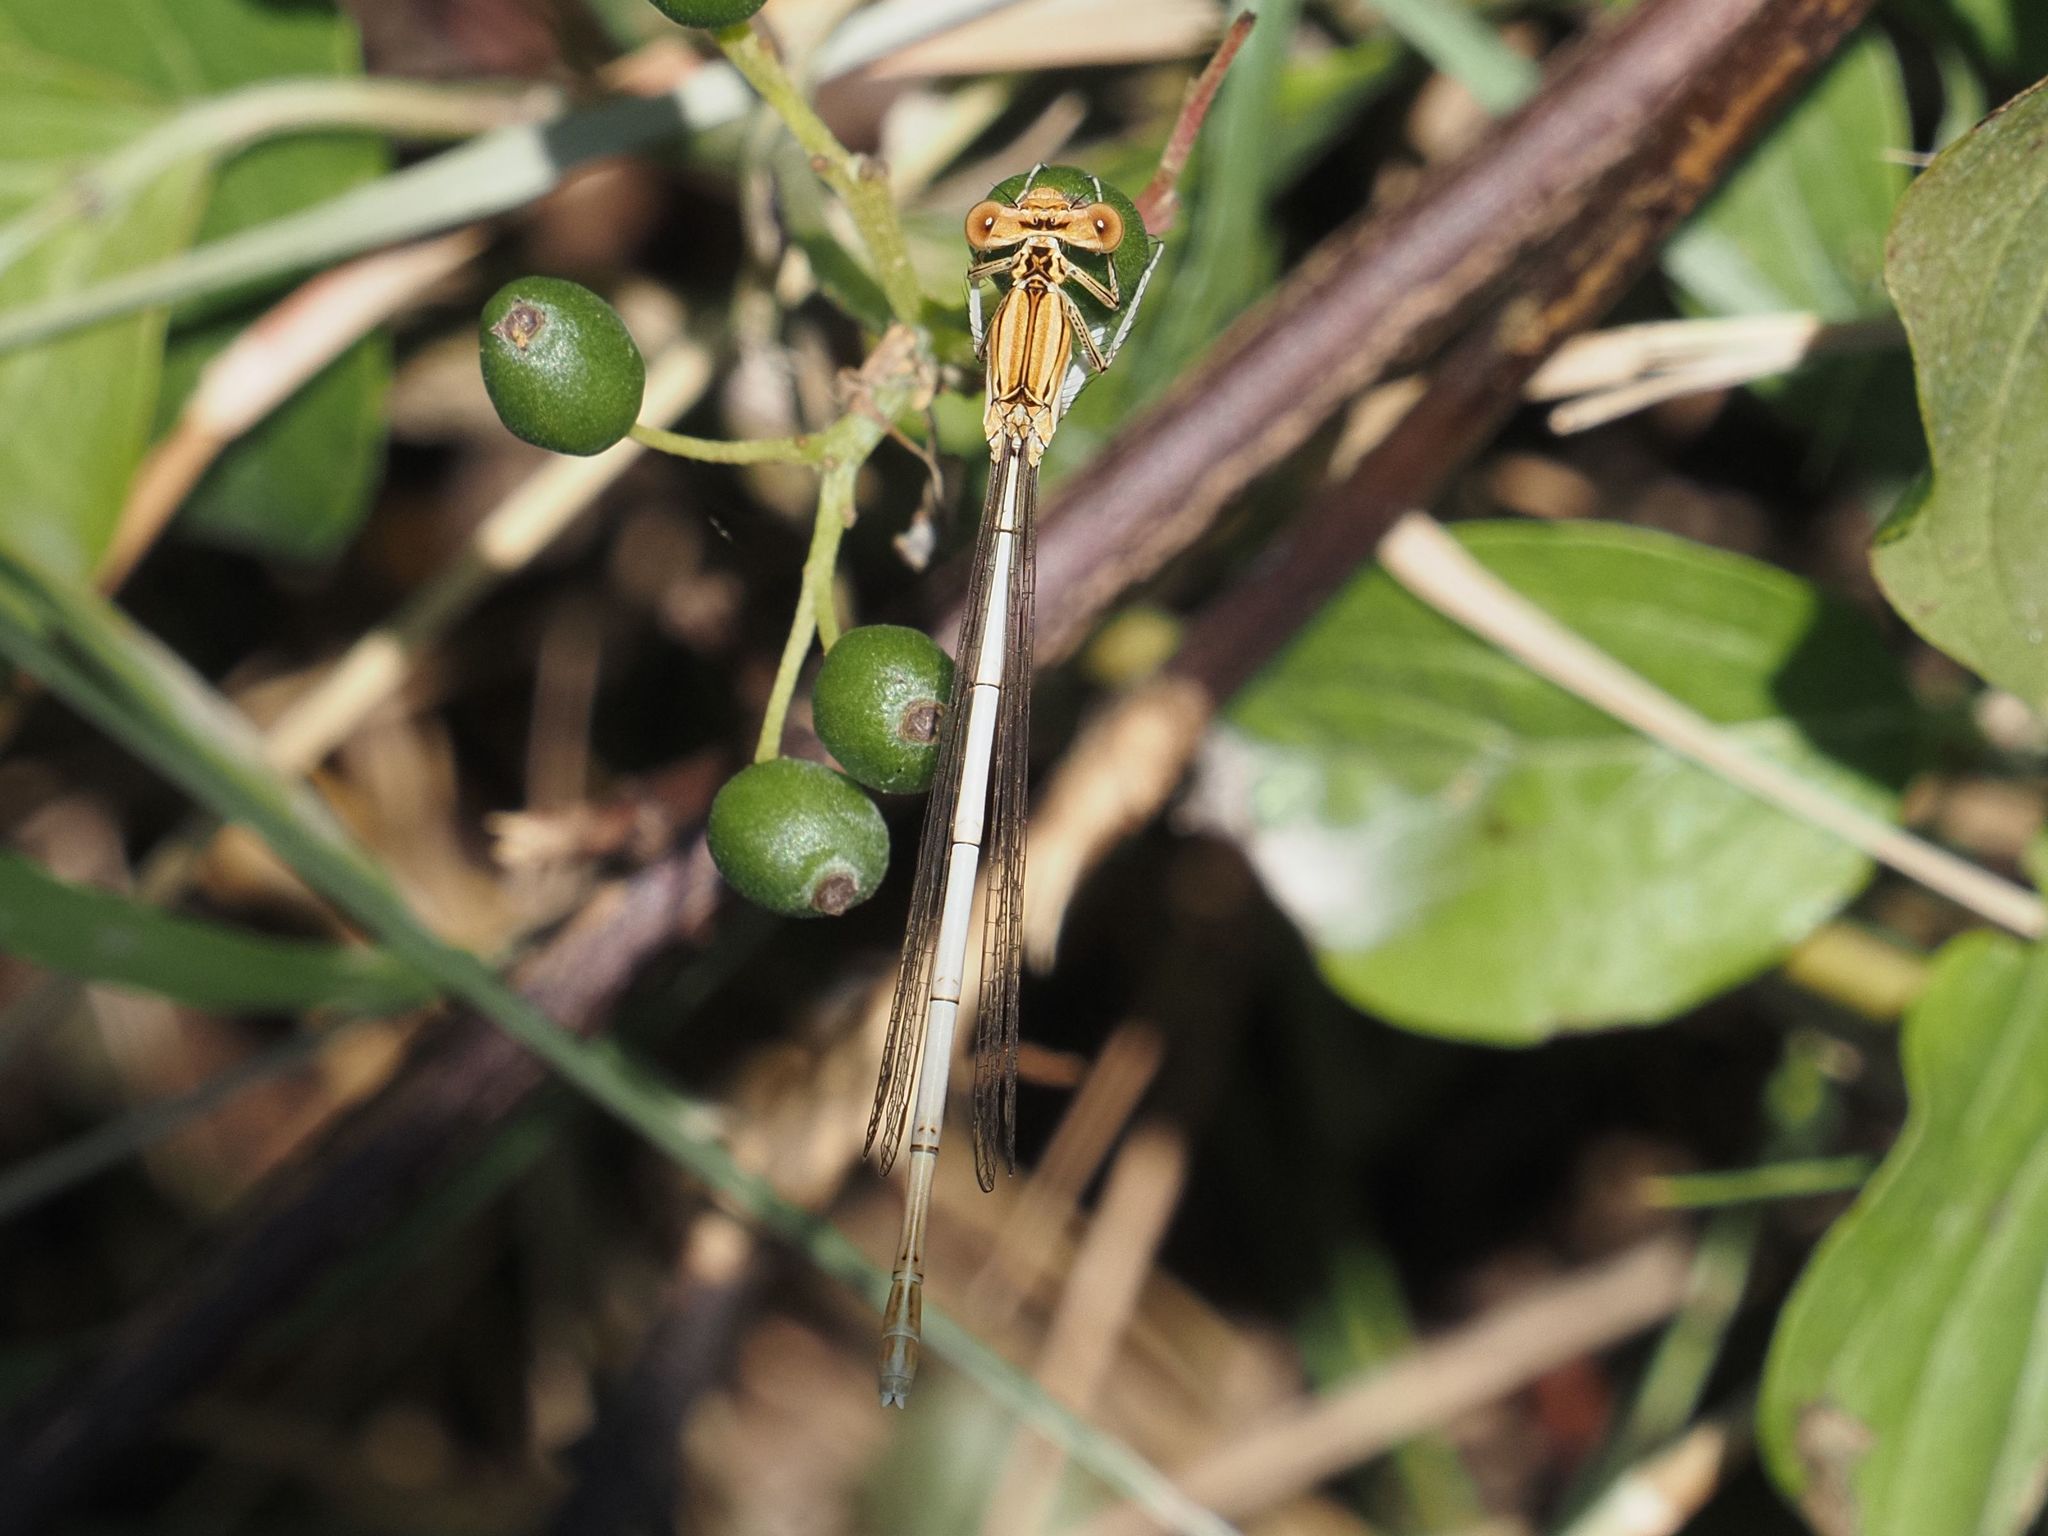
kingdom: Animalia
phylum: Arthropoda
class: Insecta
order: Odonata
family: Platycnemididae
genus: Platycnemis
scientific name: Platycnemis pennipes
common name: White-legged damselfly
